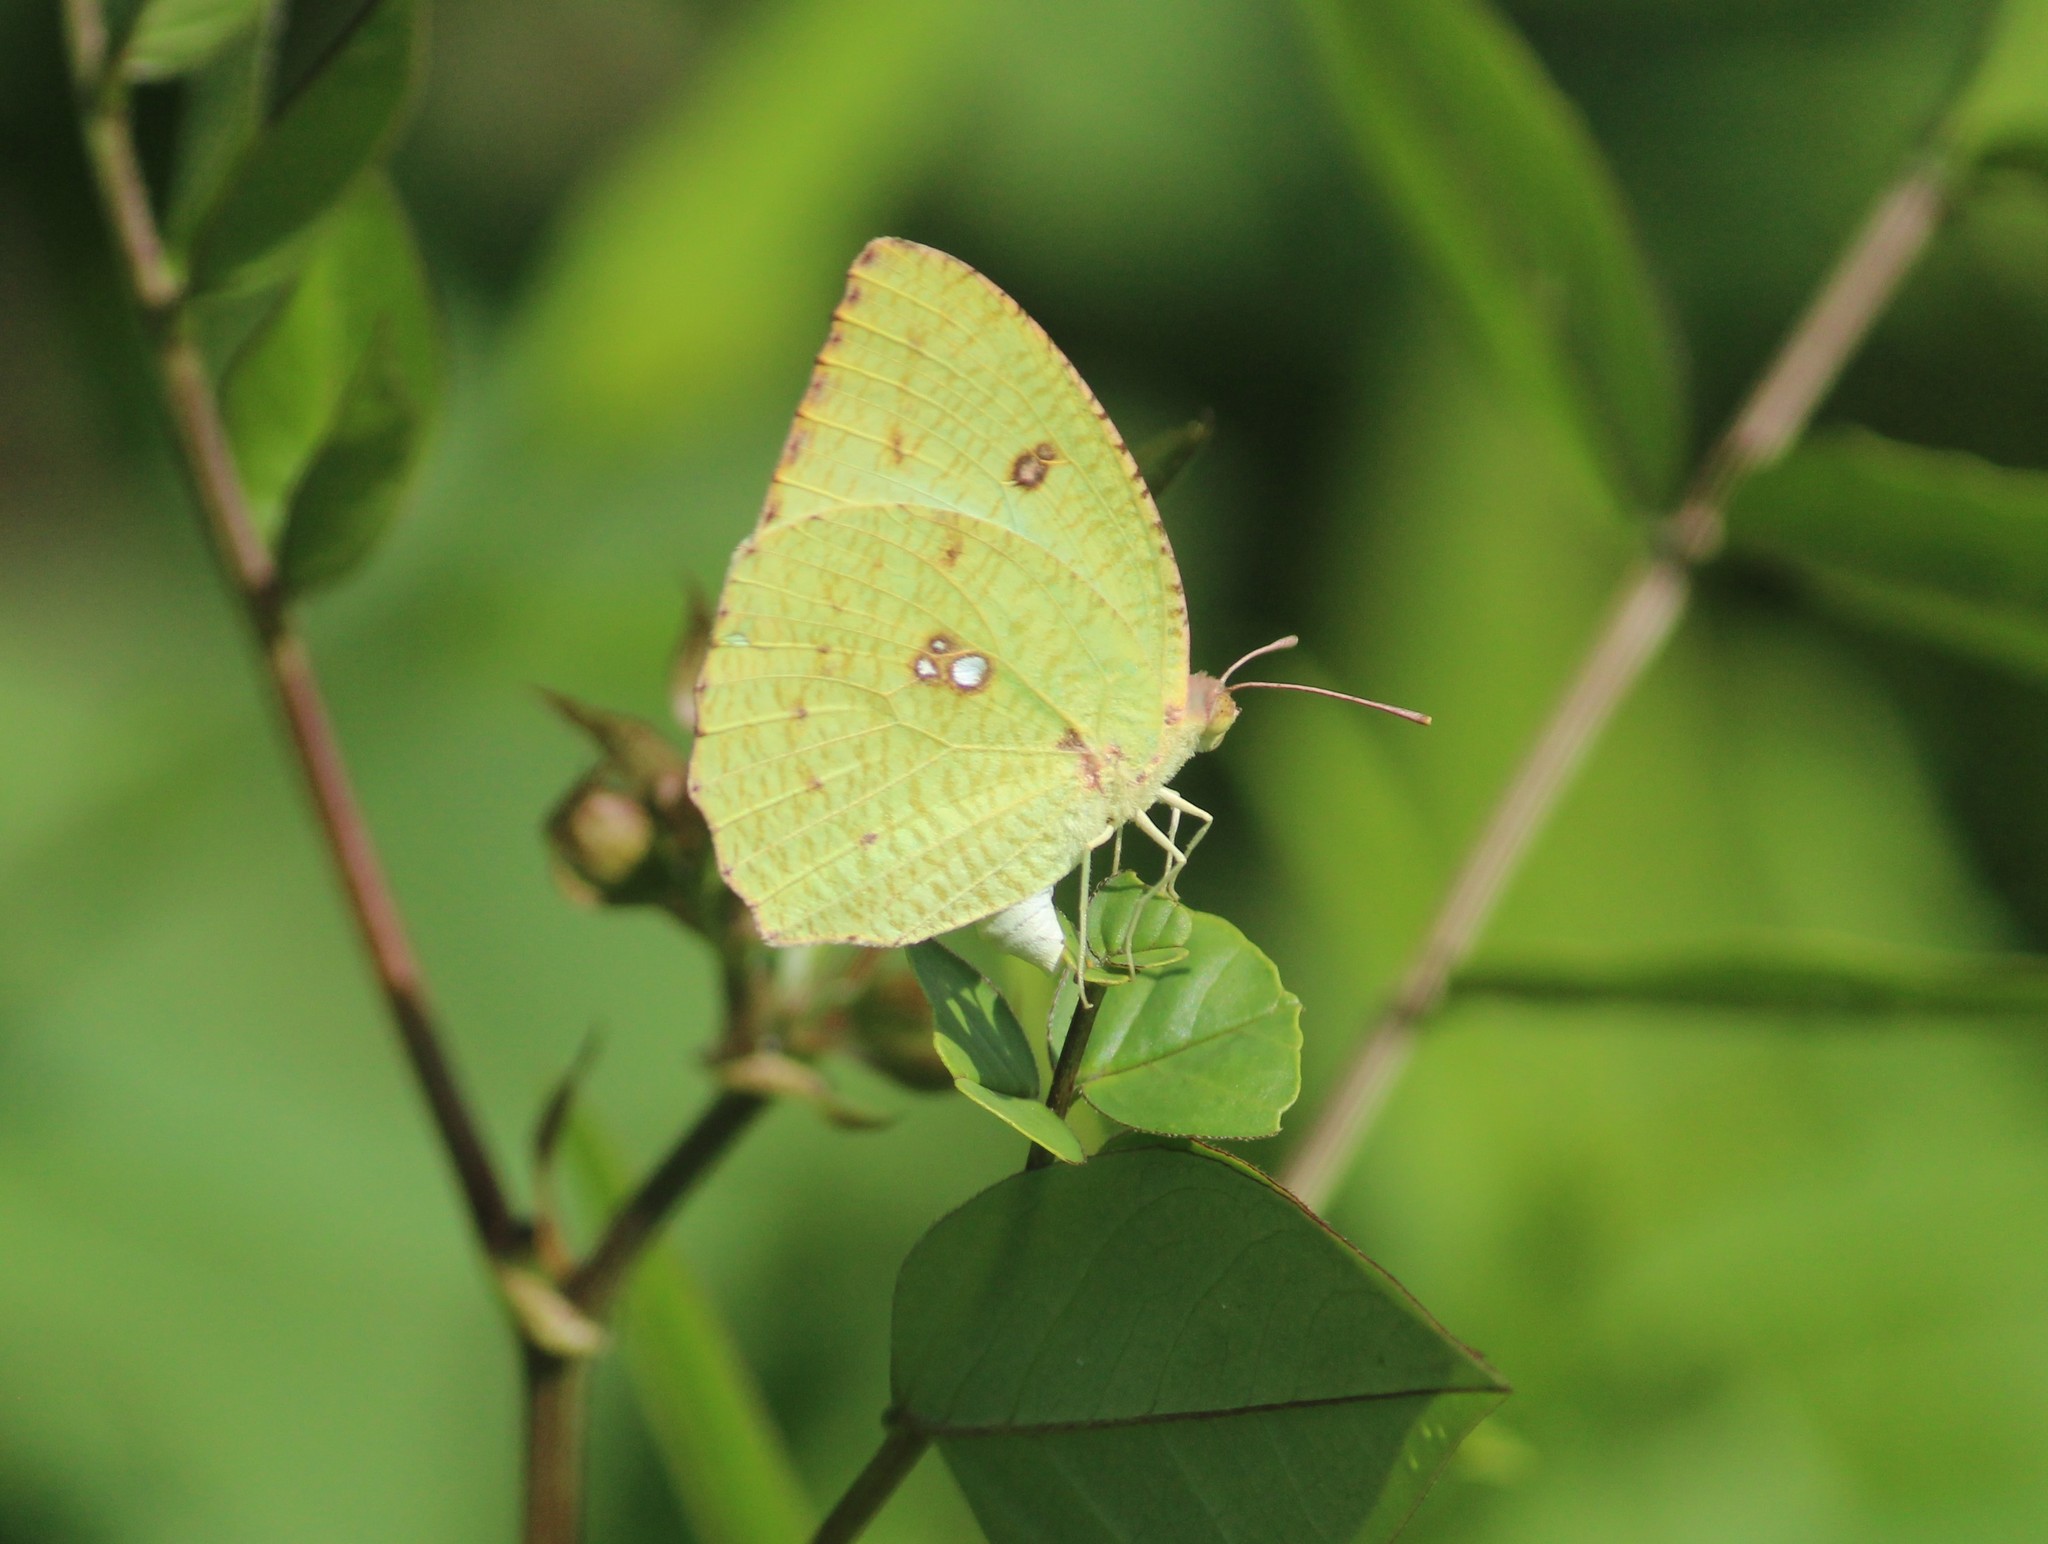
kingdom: Animalia
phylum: Arthropoda
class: Insecta
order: Lepidoptera
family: Pieridae
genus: Catopsilia
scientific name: Catopsilia pyranthe
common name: Mottled emigrant
